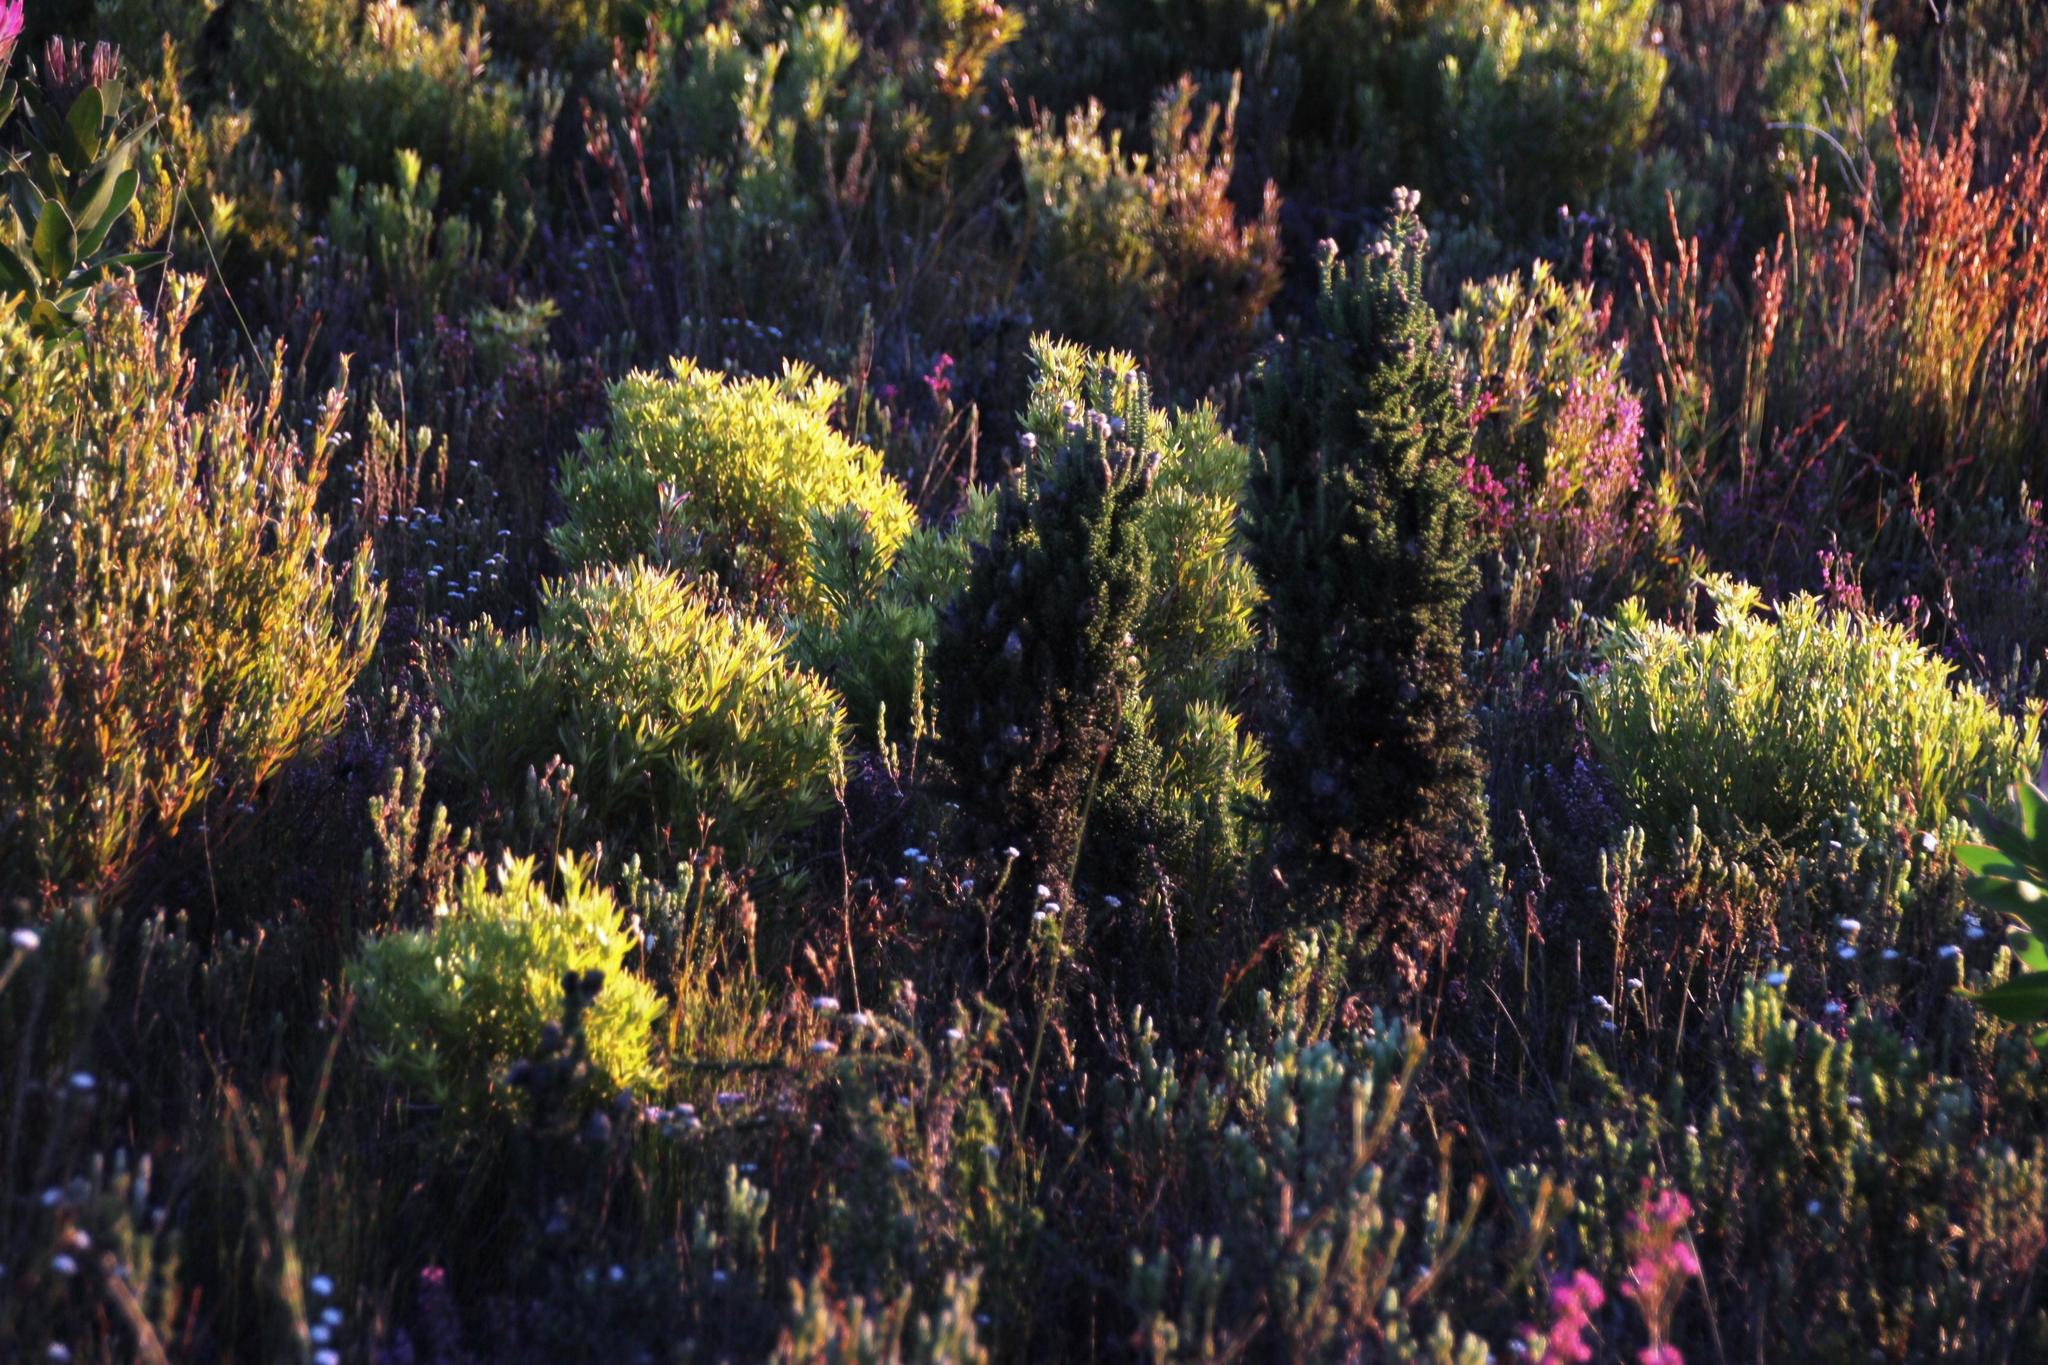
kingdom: Plantae
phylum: Tracheophyta
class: Magnoliopsida
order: Asterales
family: Asteraceae
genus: Phaenocoma
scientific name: Phaenocoma prolifera
